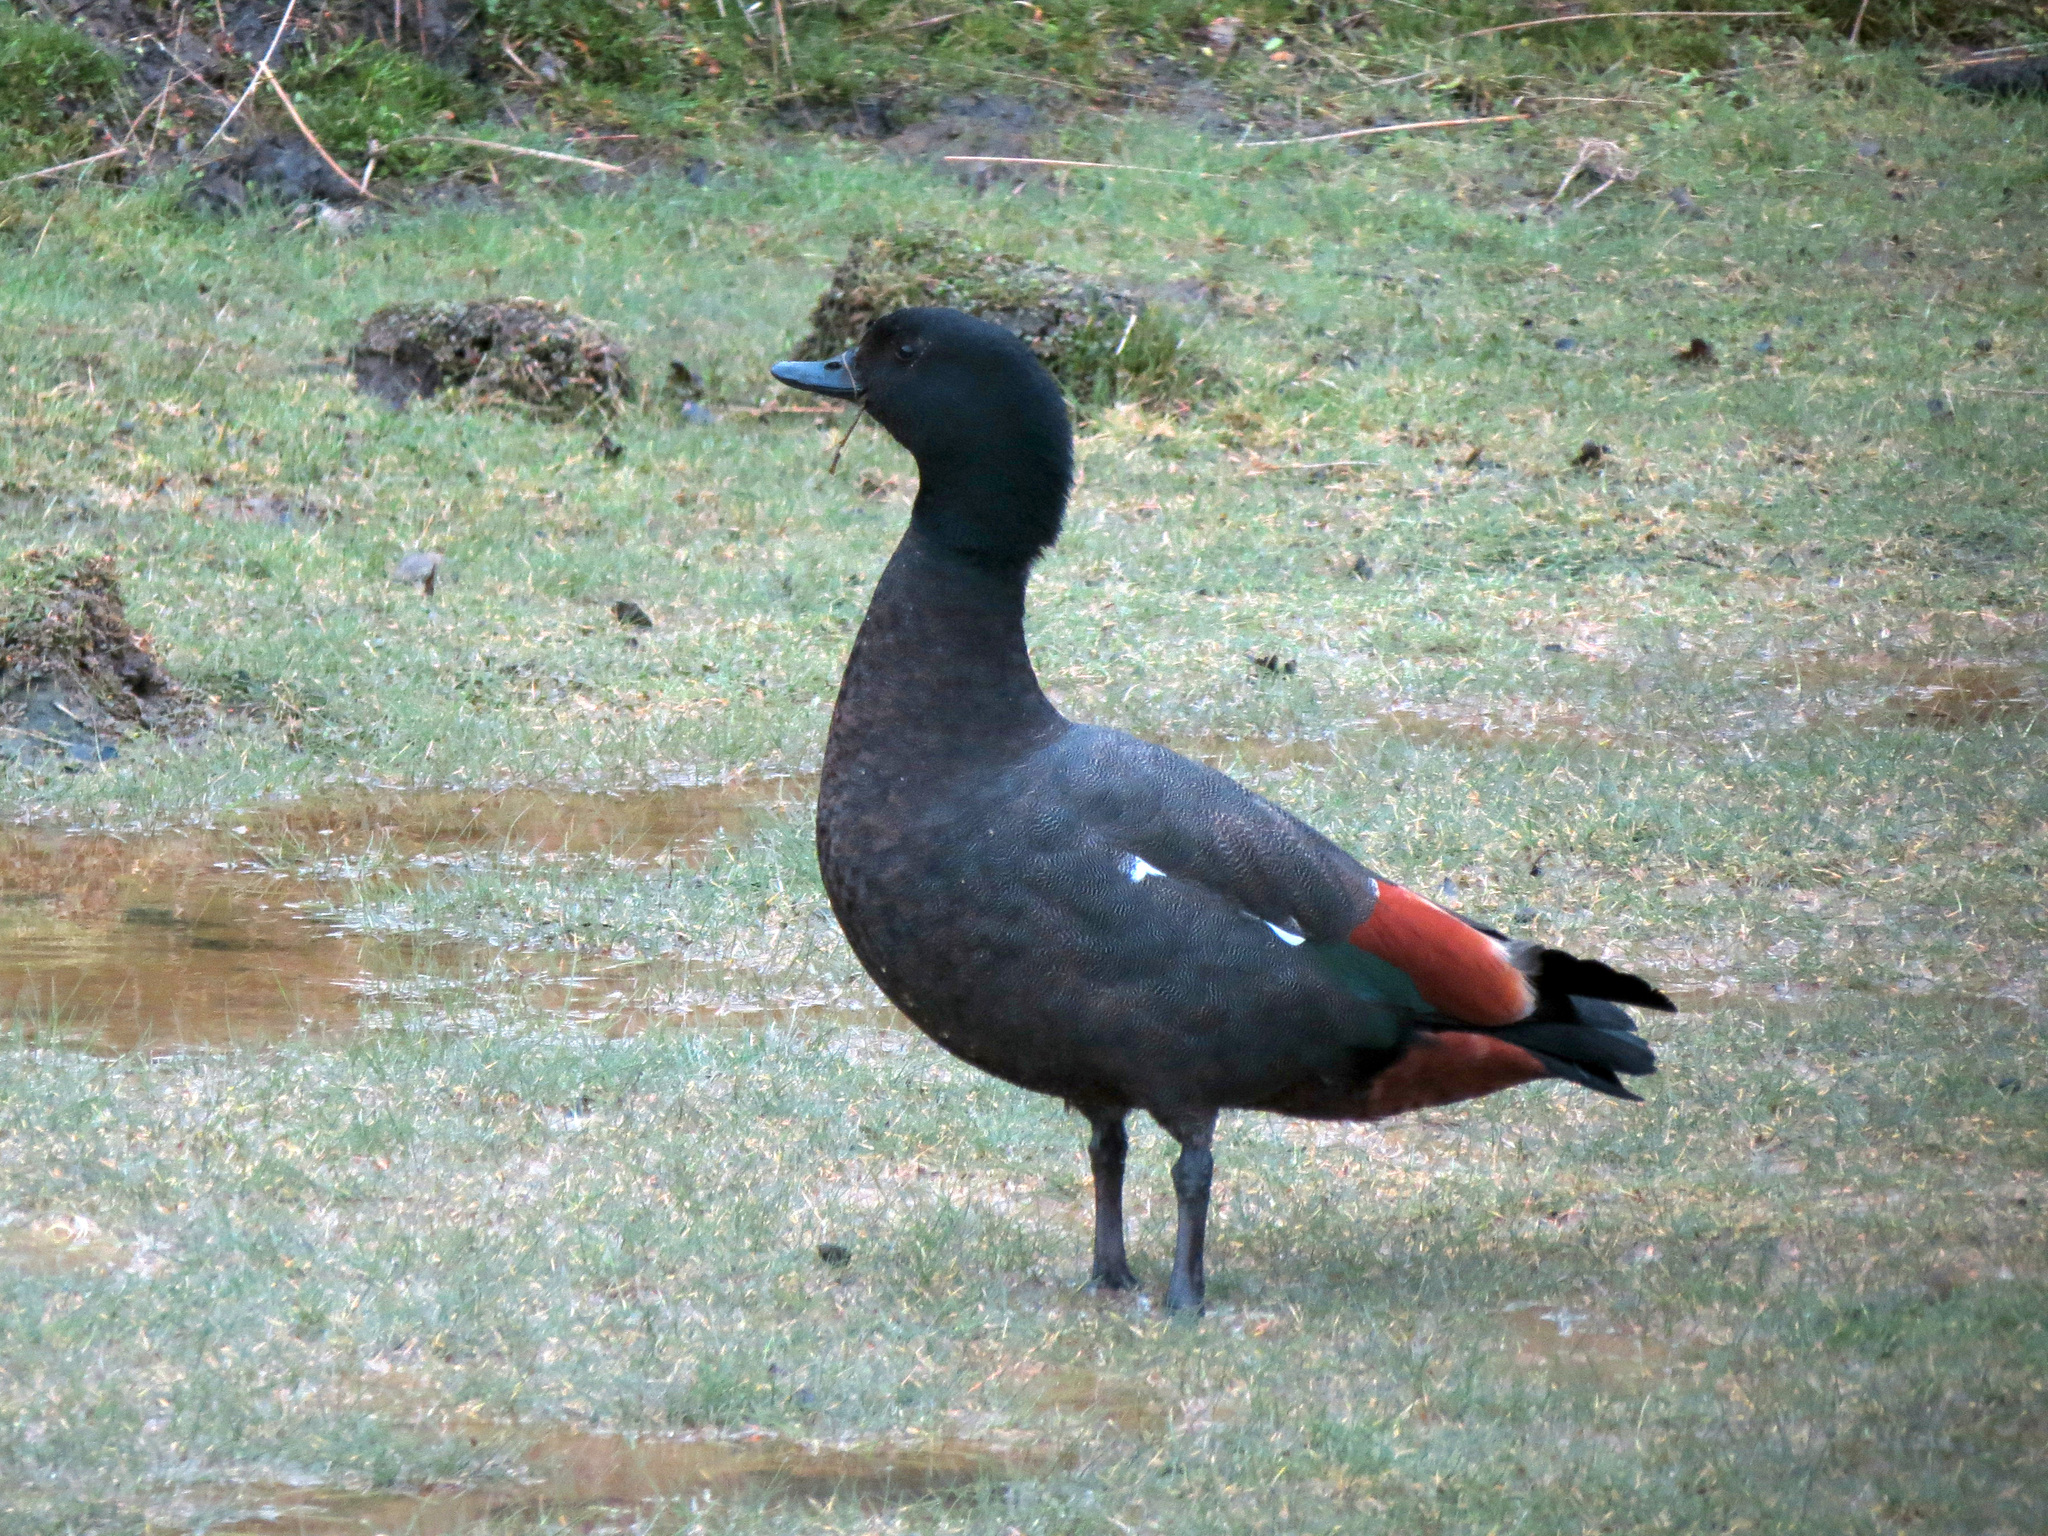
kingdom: Animalia
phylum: Chordata
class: Aves
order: Anseriformes
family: Anatidae
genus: Tadorna
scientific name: Tadorna variegata
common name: Paradise shelduck
